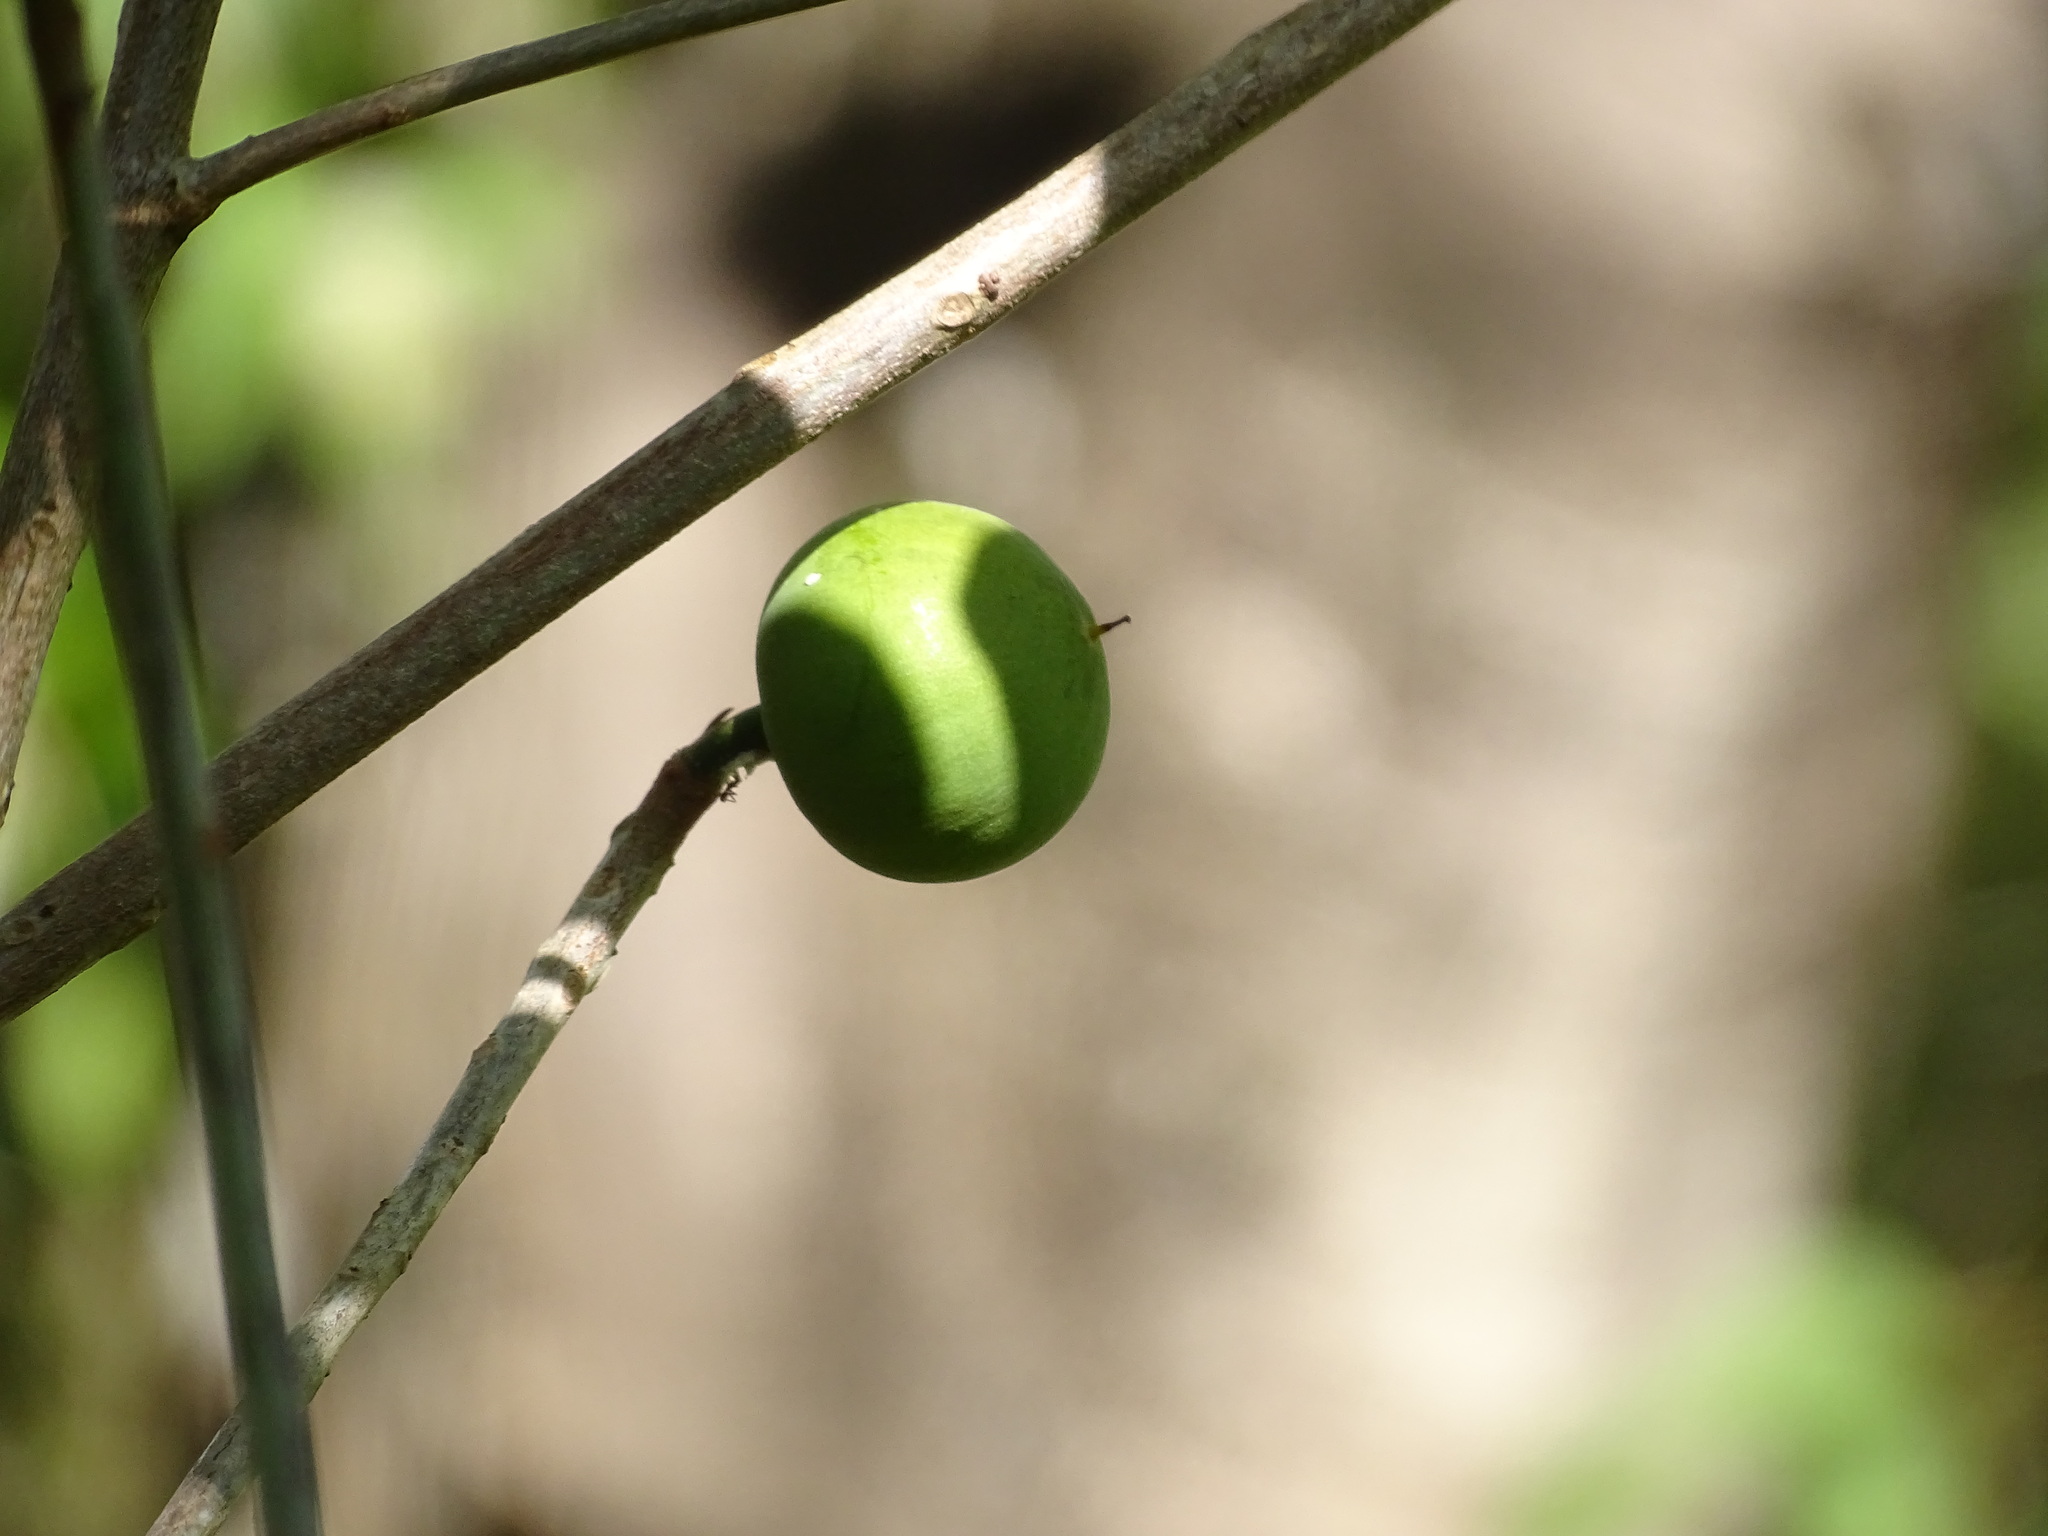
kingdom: Plantae
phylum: Tracheophyta
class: Magnoliopsida
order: Ericales
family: Sapotaceae
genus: Pouteria
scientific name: Pouteria campechiana
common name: Canistel
